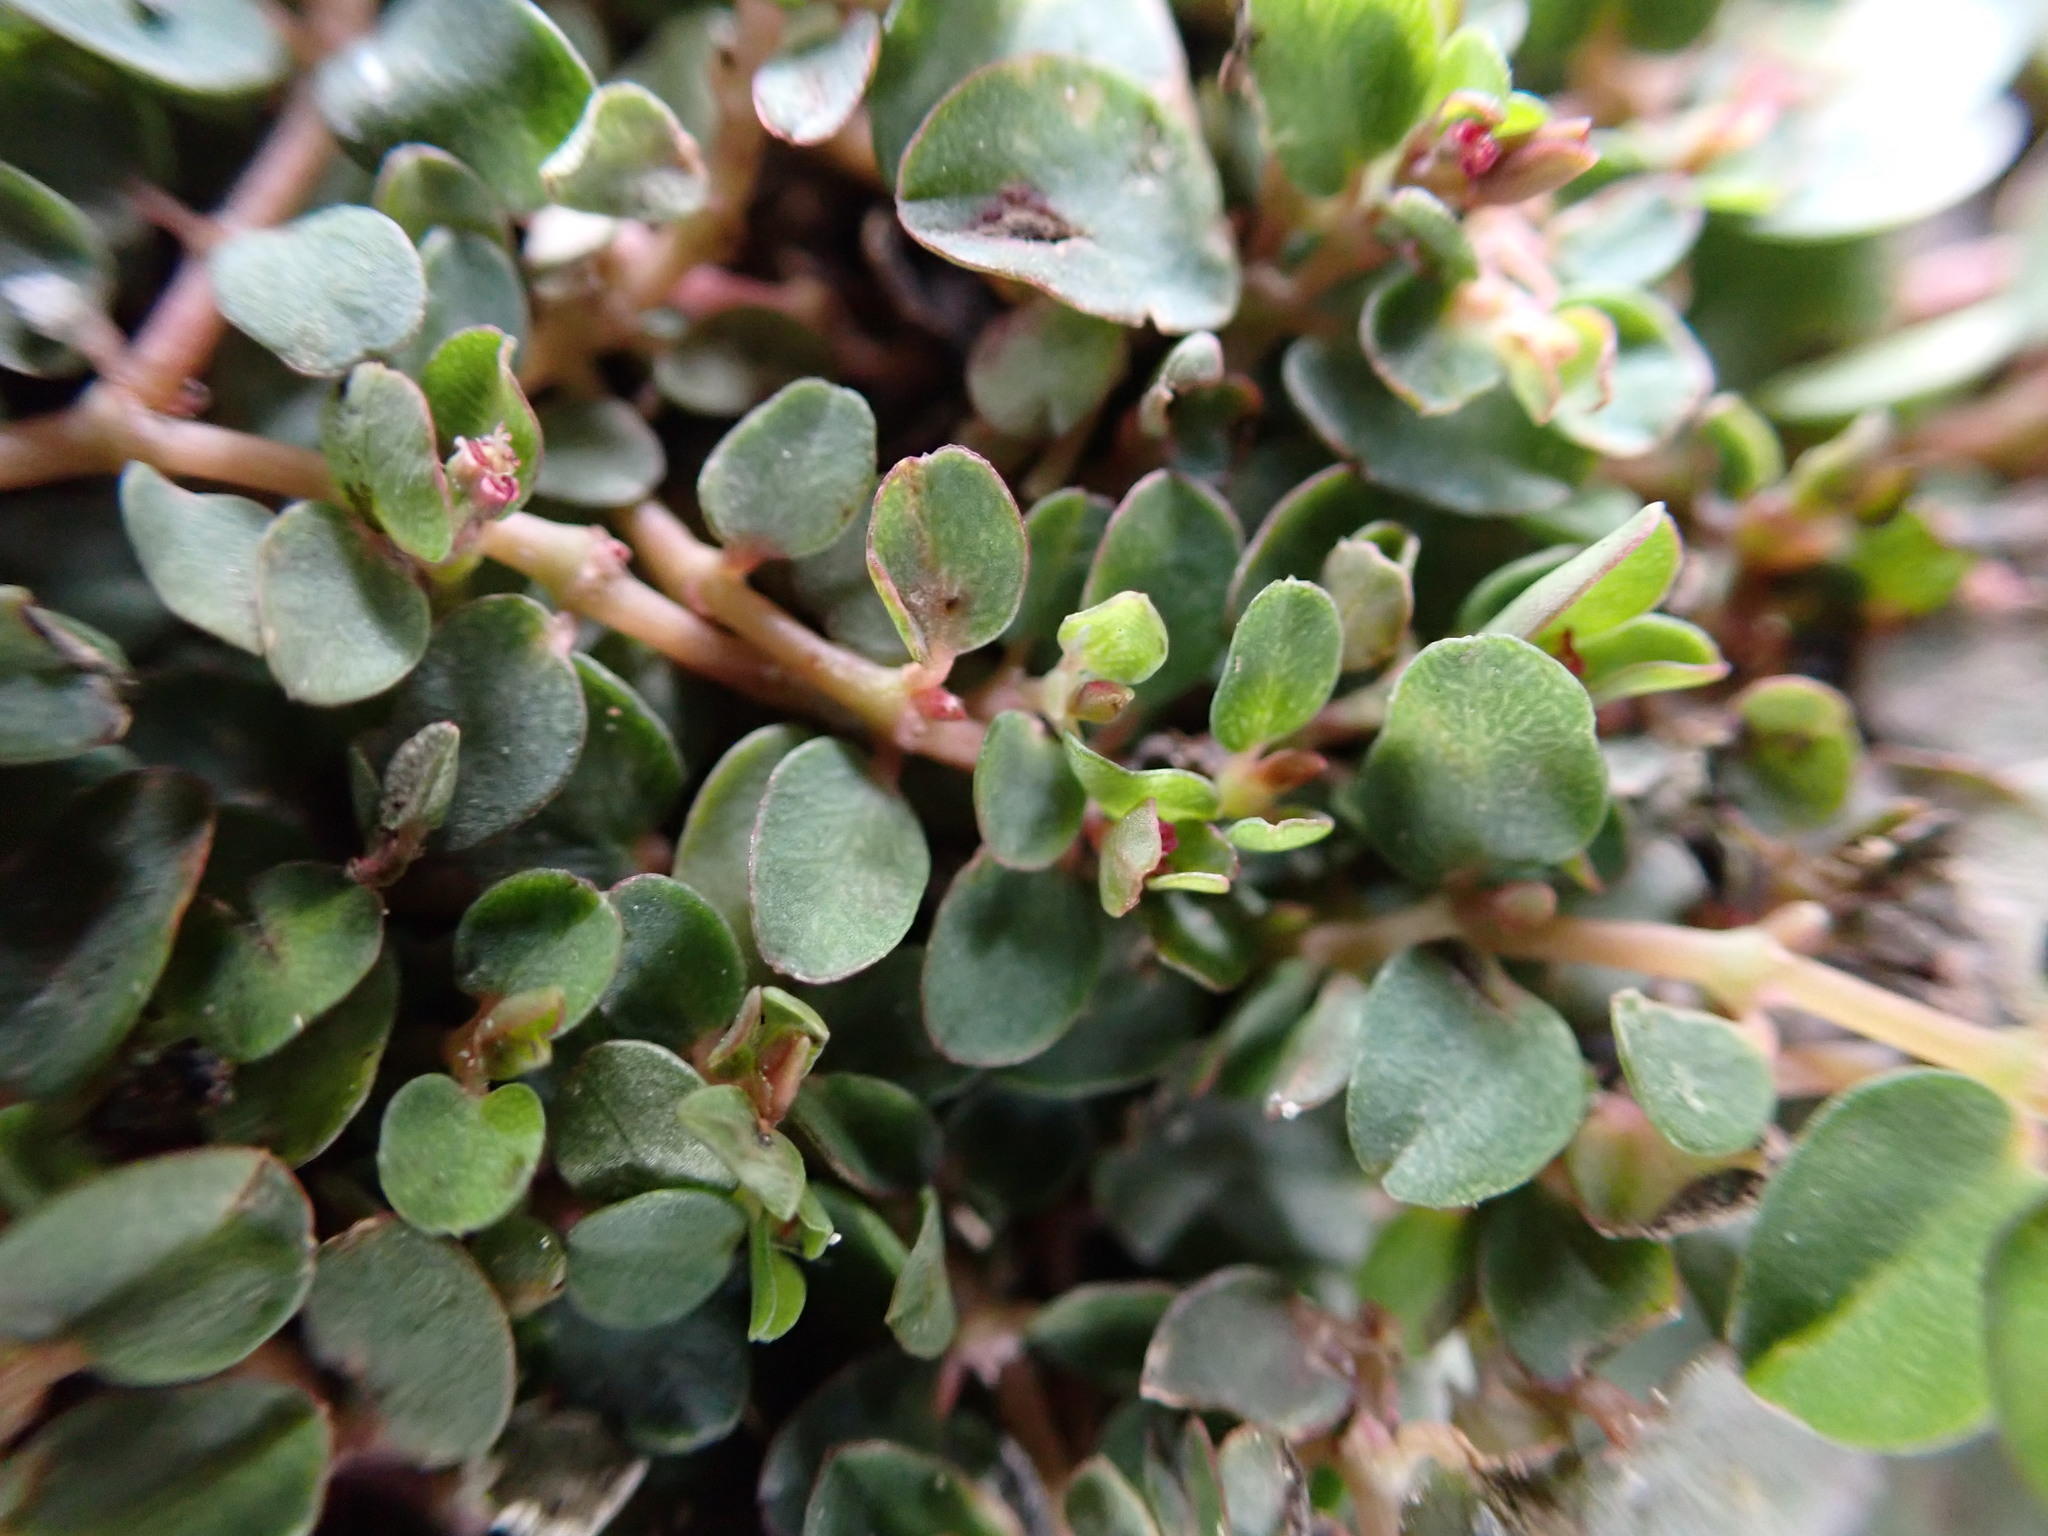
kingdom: Plantae
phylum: Tracheophyta
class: Magnoliopsida
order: Malpighiales
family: Euphorbiaceae
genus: Euphorbia
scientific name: Euphorbia serpens
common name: Matted sandmat
